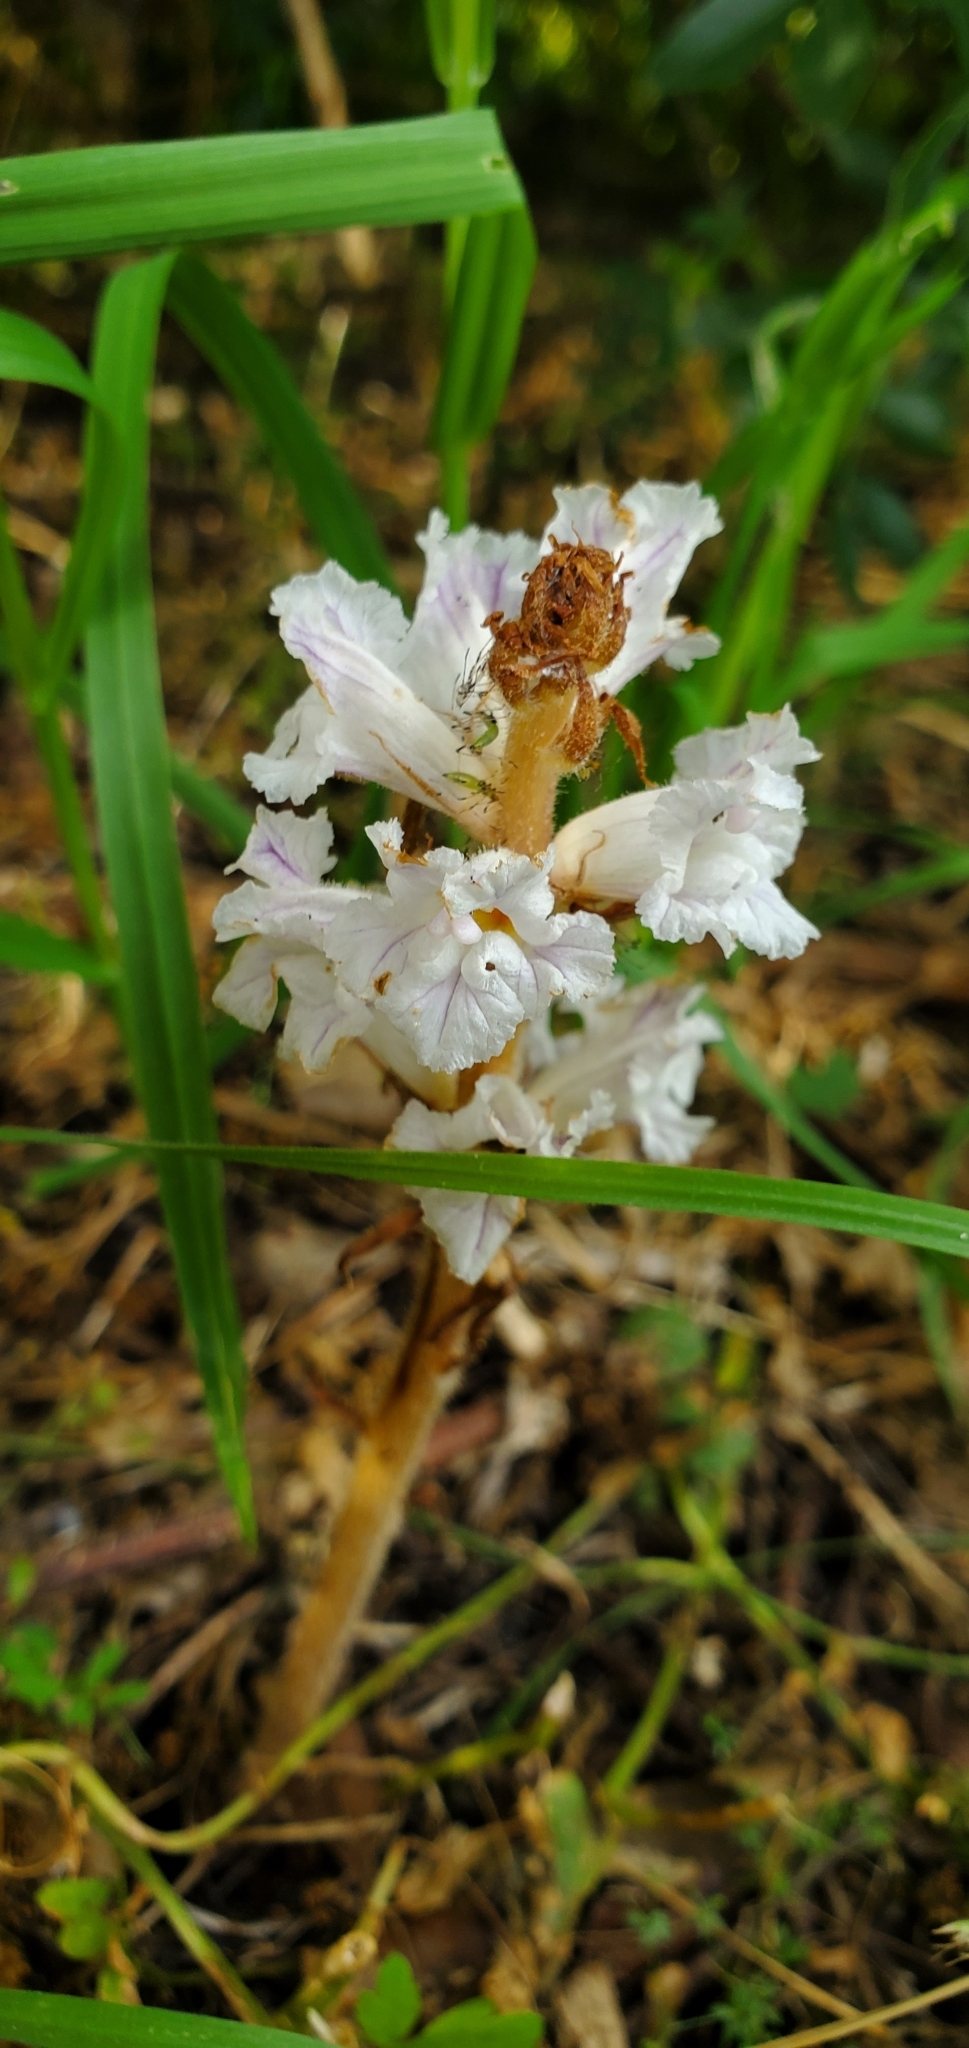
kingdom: Plantae
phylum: Tracheophyta
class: Magnoliopsida
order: Lamiales
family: Orobanchaceae
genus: Orobanche
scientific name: Orobanche crenata
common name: Bean broomrape
